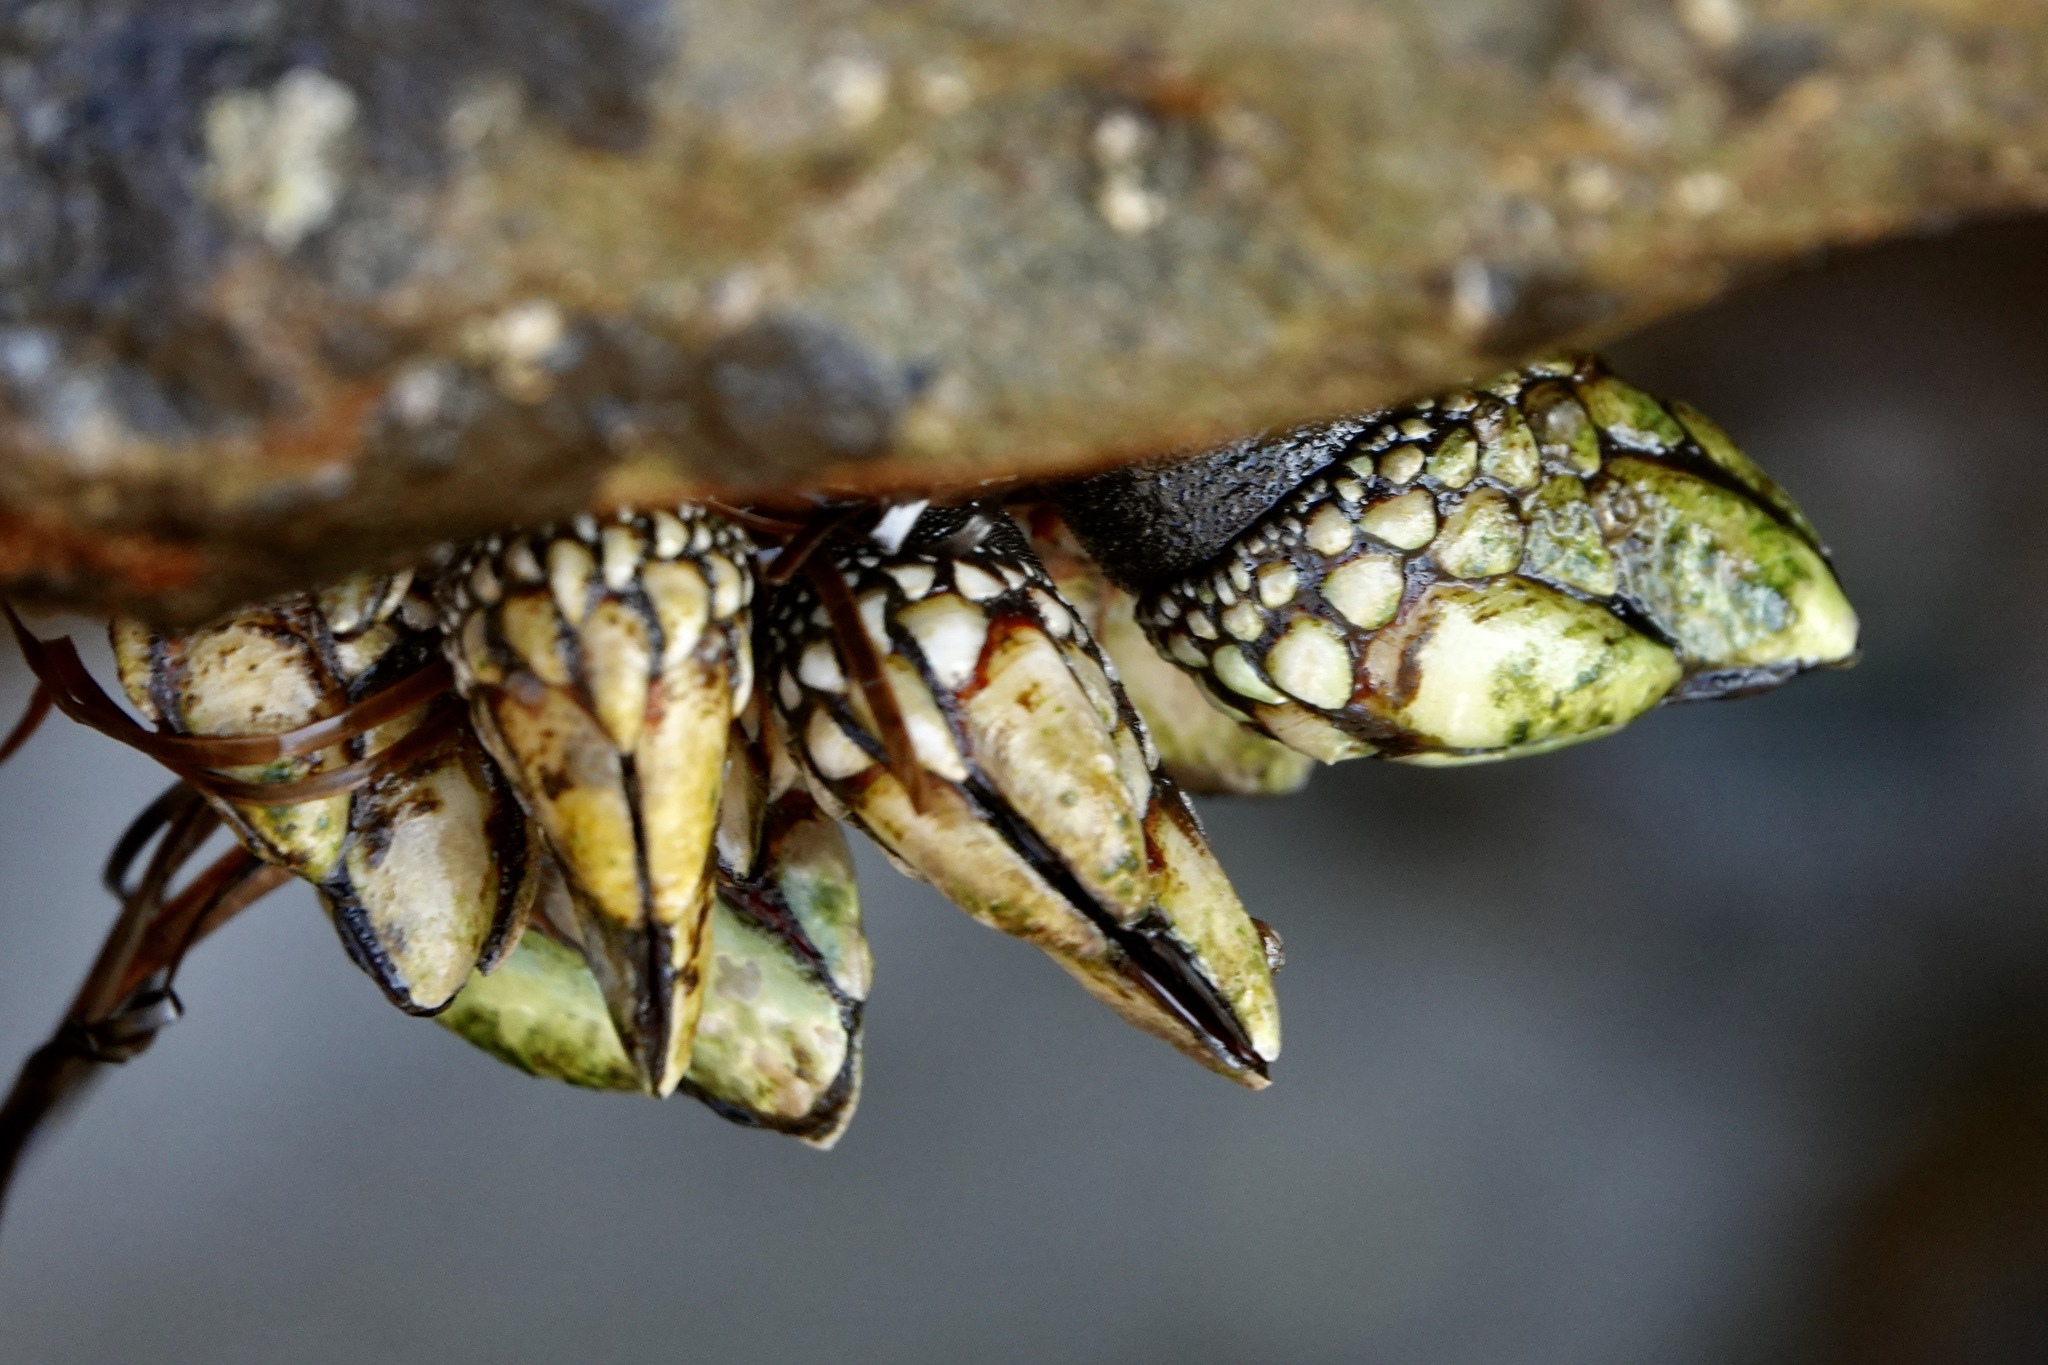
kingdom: Animalia
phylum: Arthropoda
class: Maxillopoda
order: Pedunculata
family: Pollicipedidae
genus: Pollicipes
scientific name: Pollicipes polymerus
